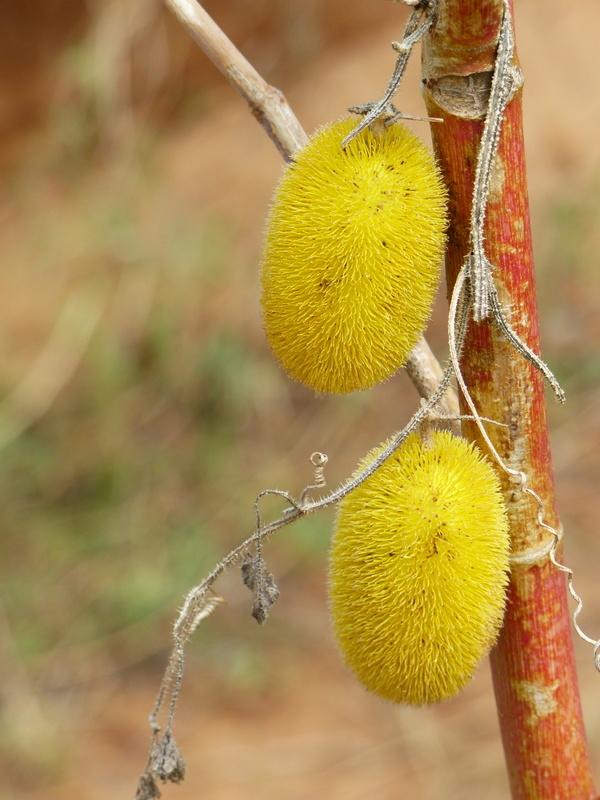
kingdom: Plantae
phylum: Tracheophyta
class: Magnoliopsida
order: Cucurbitales
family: Cucurbitaceae
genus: Cucumis
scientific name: Cucumis dipsaceus
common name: Hedgehog gourd
